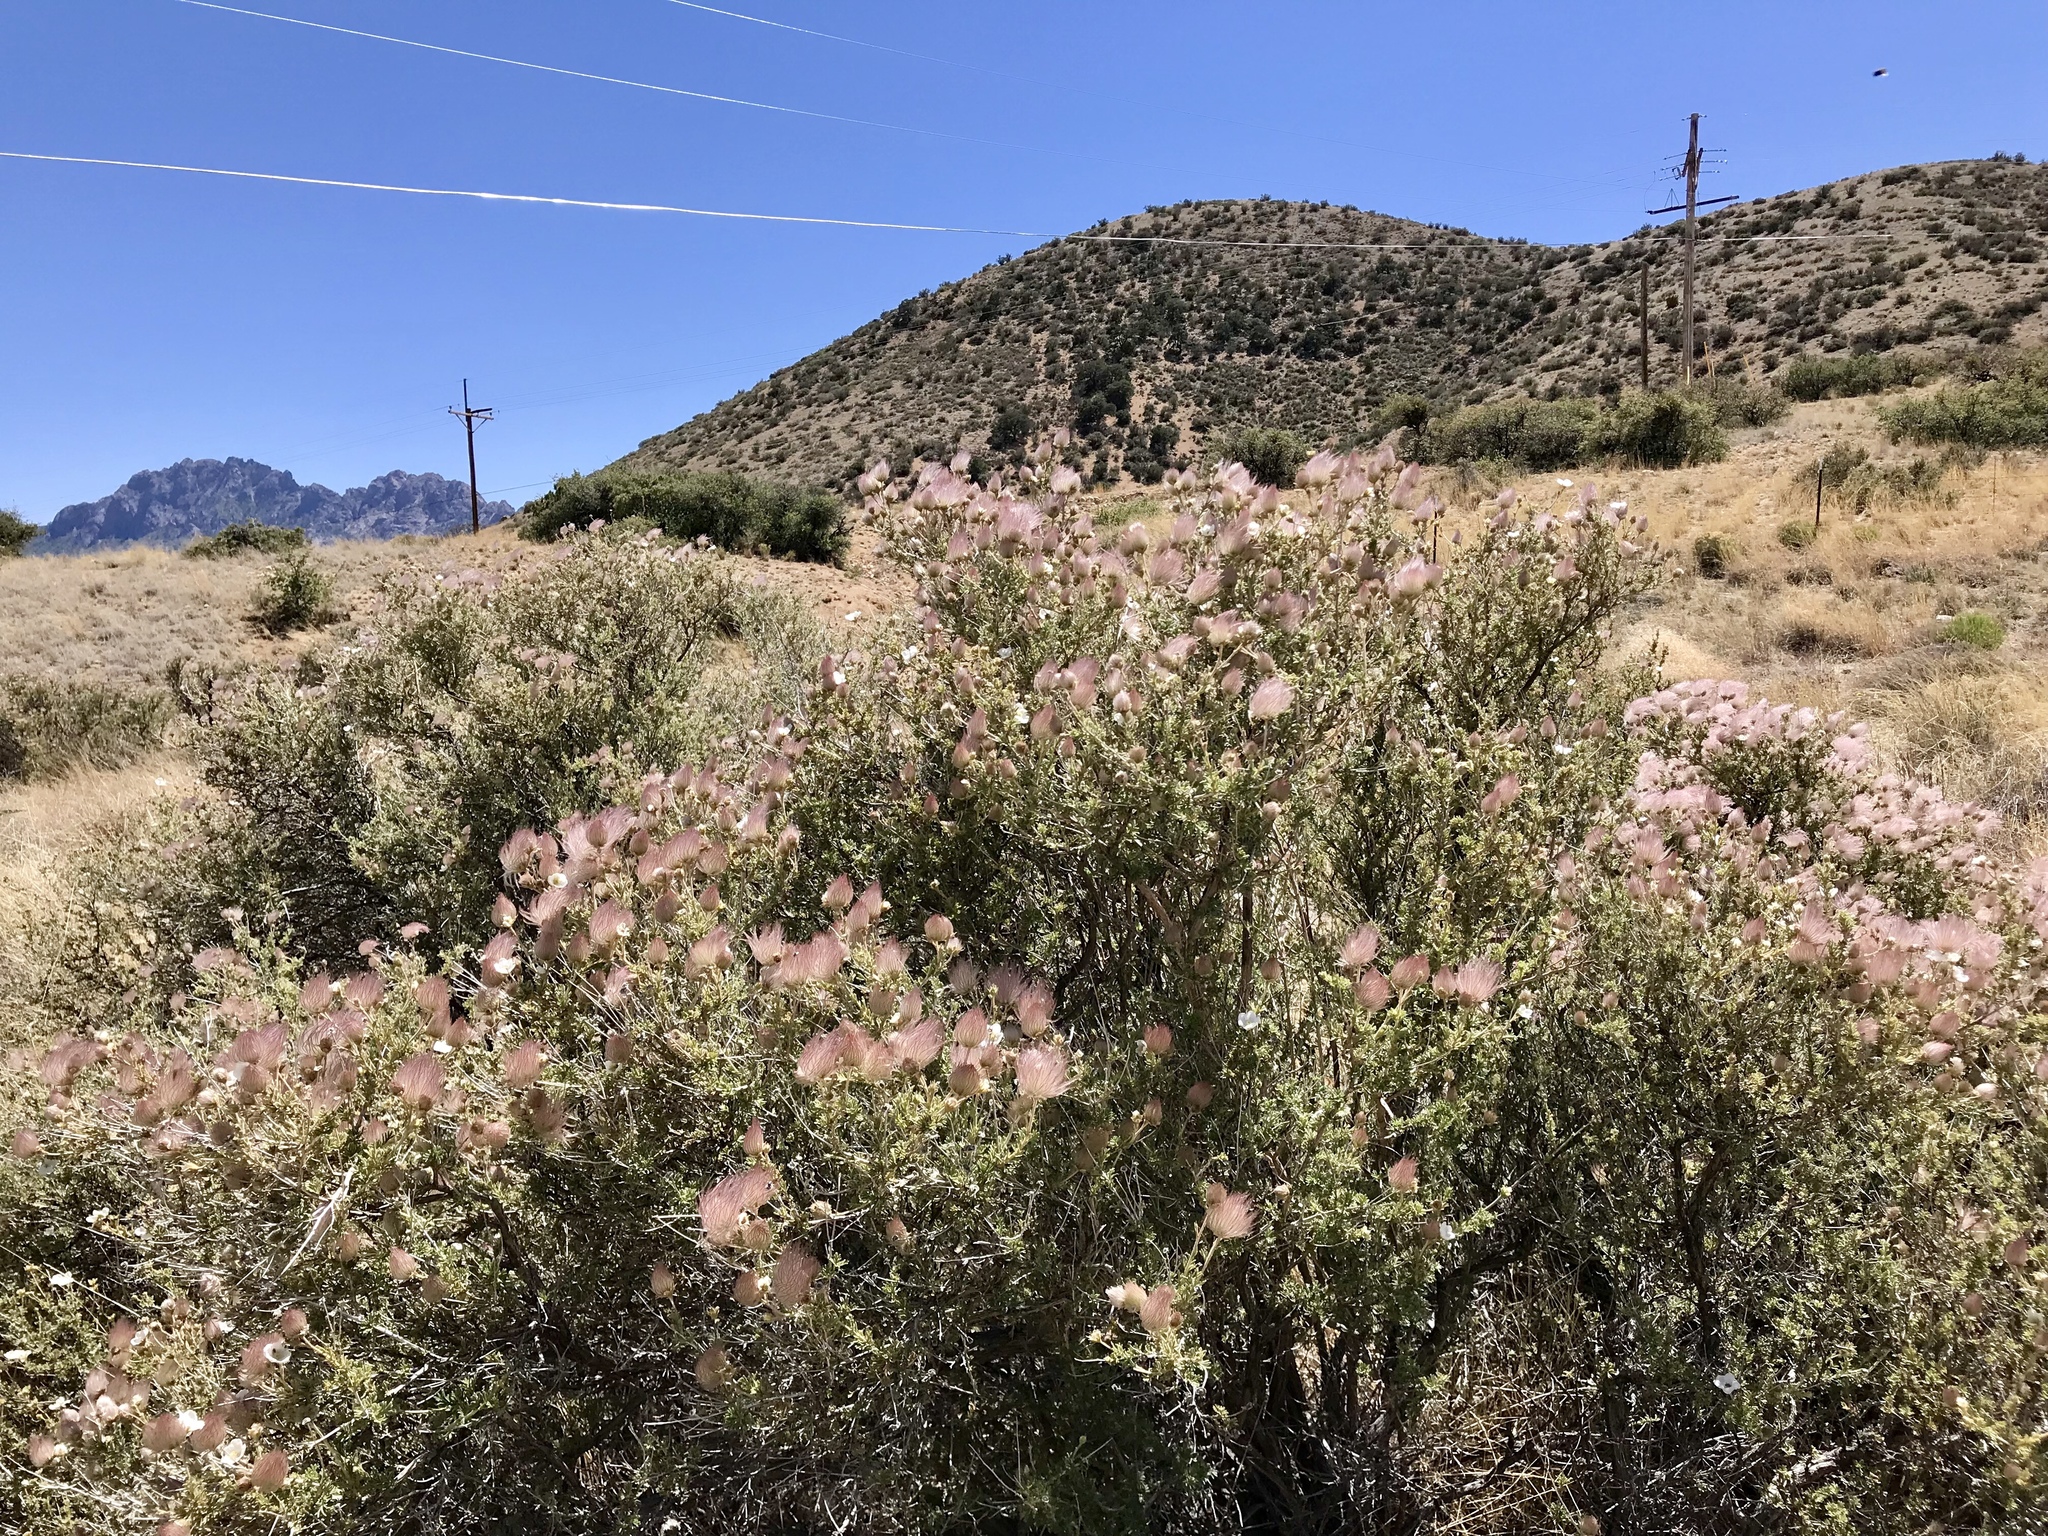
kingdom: Plantae
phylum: Tracheophyta
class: Magnoliopsida
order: Rosales
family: Rosaceae
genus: Fallugia
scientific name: Fallugia paradoxa
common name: Apache-plume
